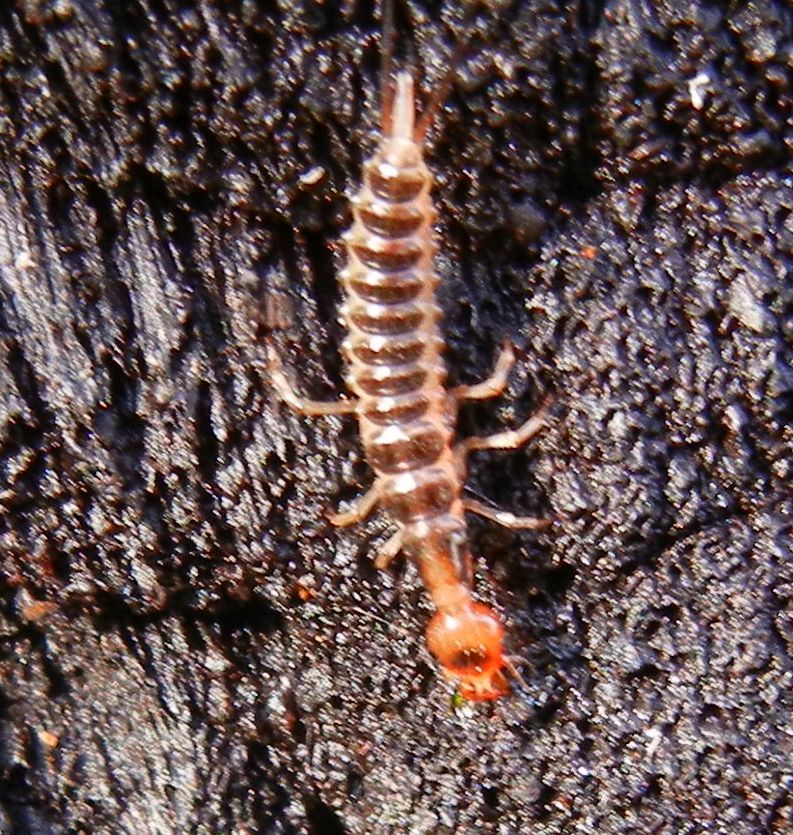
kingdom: Animalia
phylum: Arthropoda
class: Insecta
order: Coleoptera
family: Carabidae
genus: Leistus
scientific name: Leistus
